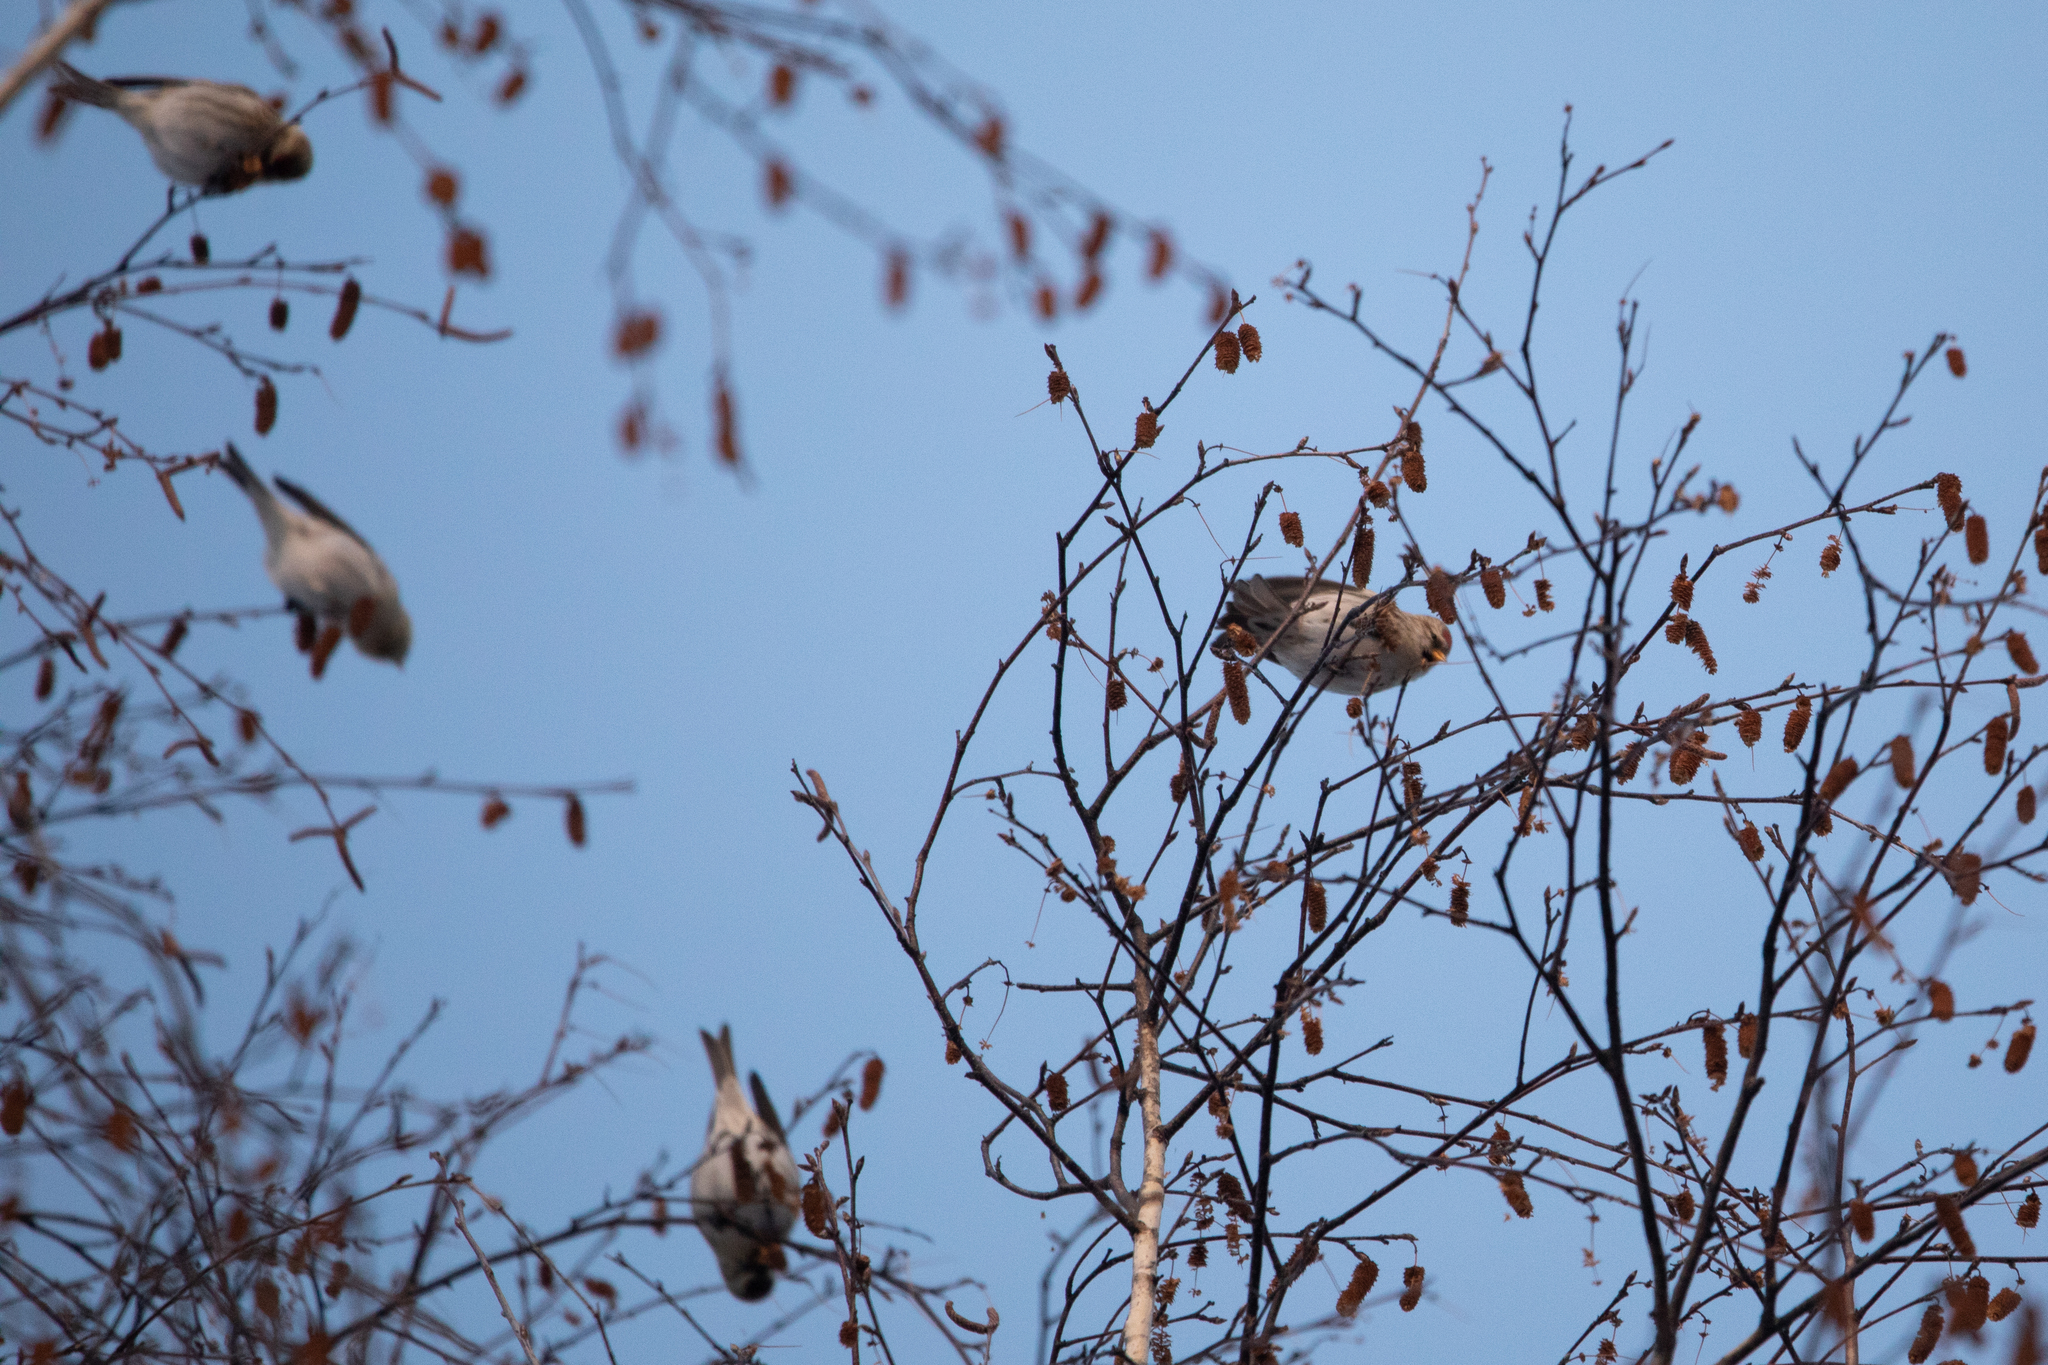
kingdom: Animalia
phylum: Chordata
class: Aves
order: Passeriformes
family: Fringillidae
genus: Acanthis
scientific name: Acanthis flammea
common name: Common redpoll
